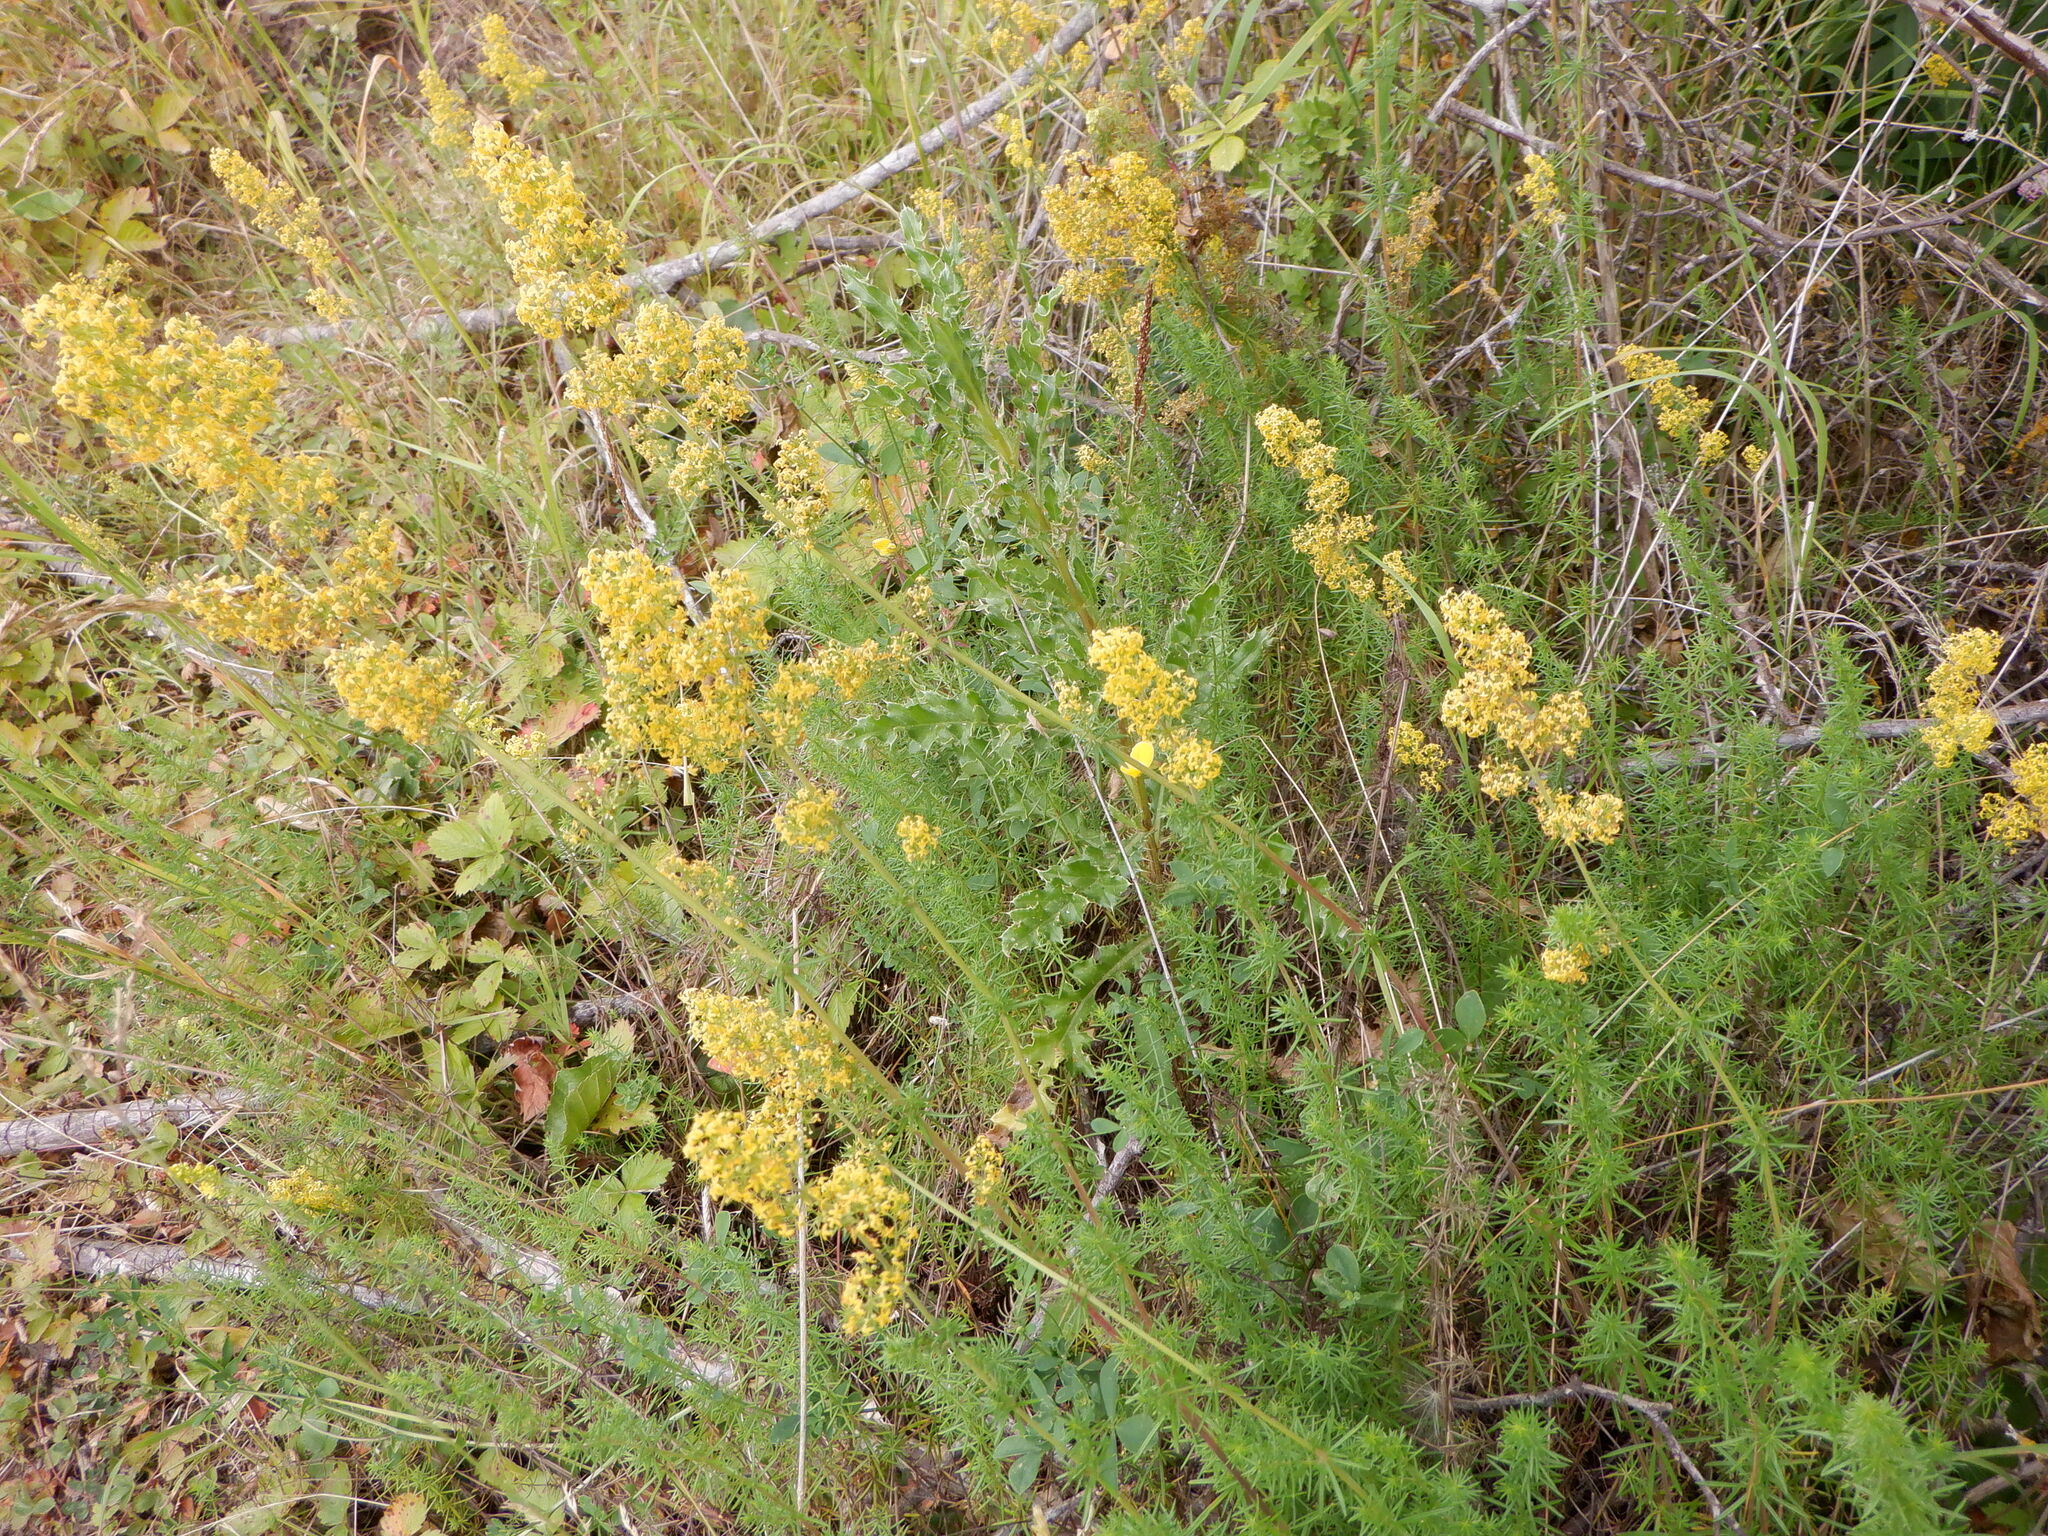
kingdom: Plantae
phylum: Tracheophyta
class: Magnoliopsida
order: Gentianales
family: Rubiaceae
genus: Galium
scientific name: Galium verum
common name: Lady's bedstraw
